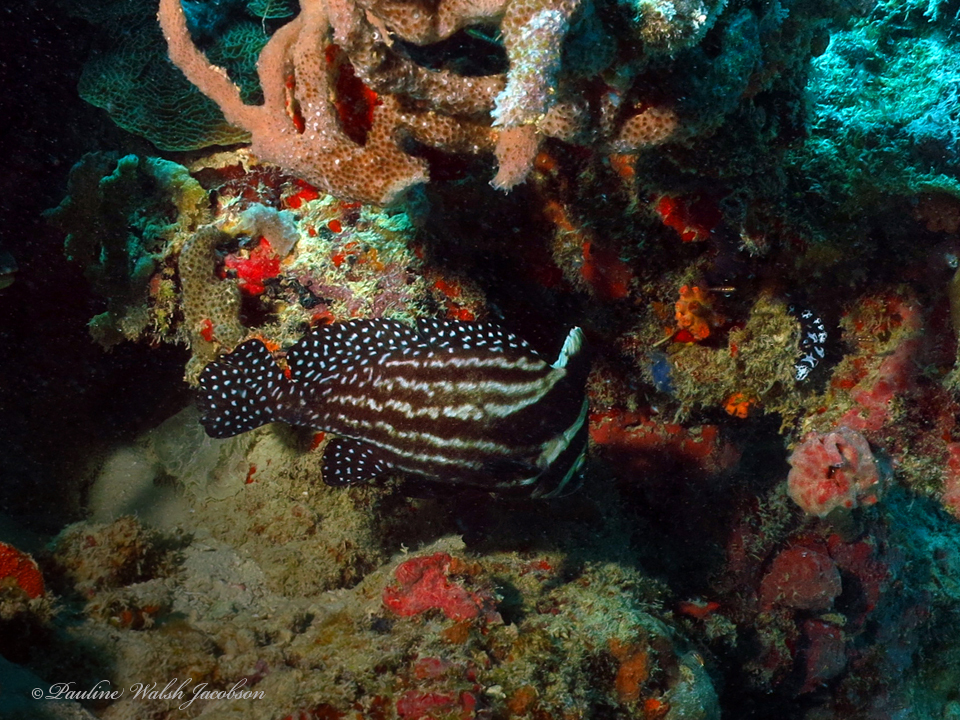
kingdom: Animalia
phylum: Chordata
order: Perciformes
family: Sciaenidae
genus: Equetus
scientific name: Equetus punctatus
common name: Spotted drum
